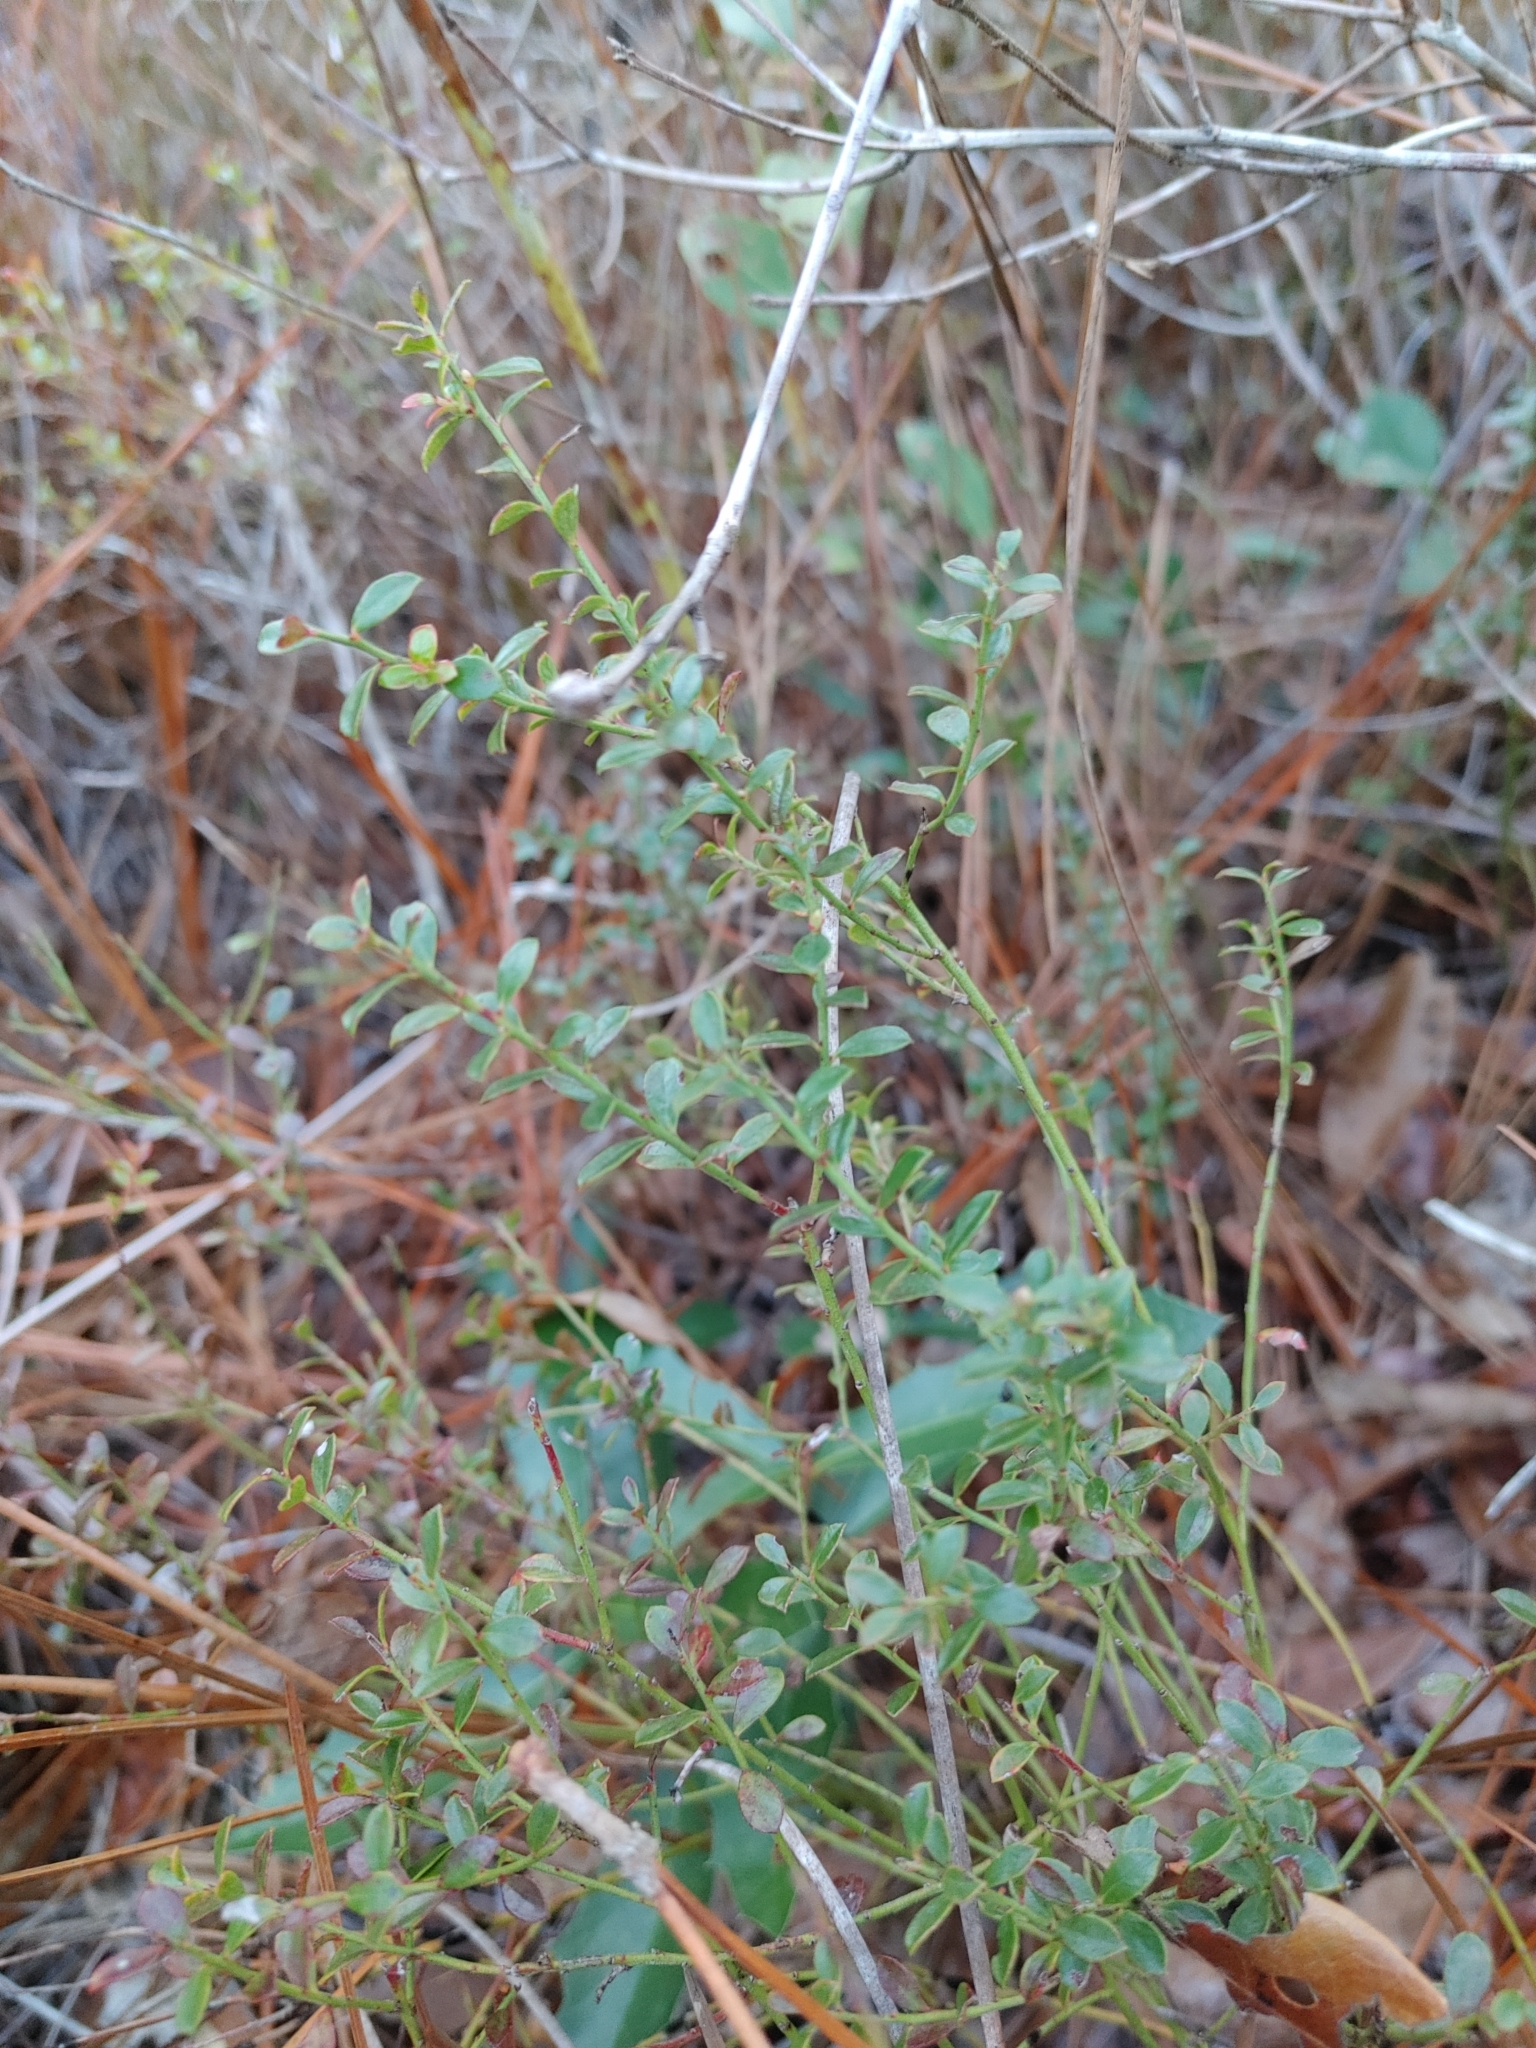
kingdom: Plantae
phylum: Tracheophyta
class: Magnoliopsida
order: Ericales
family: Ericaceae
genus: Vaccinium
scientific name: Vaccinium myrsinites
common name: Evergreen blueberry
